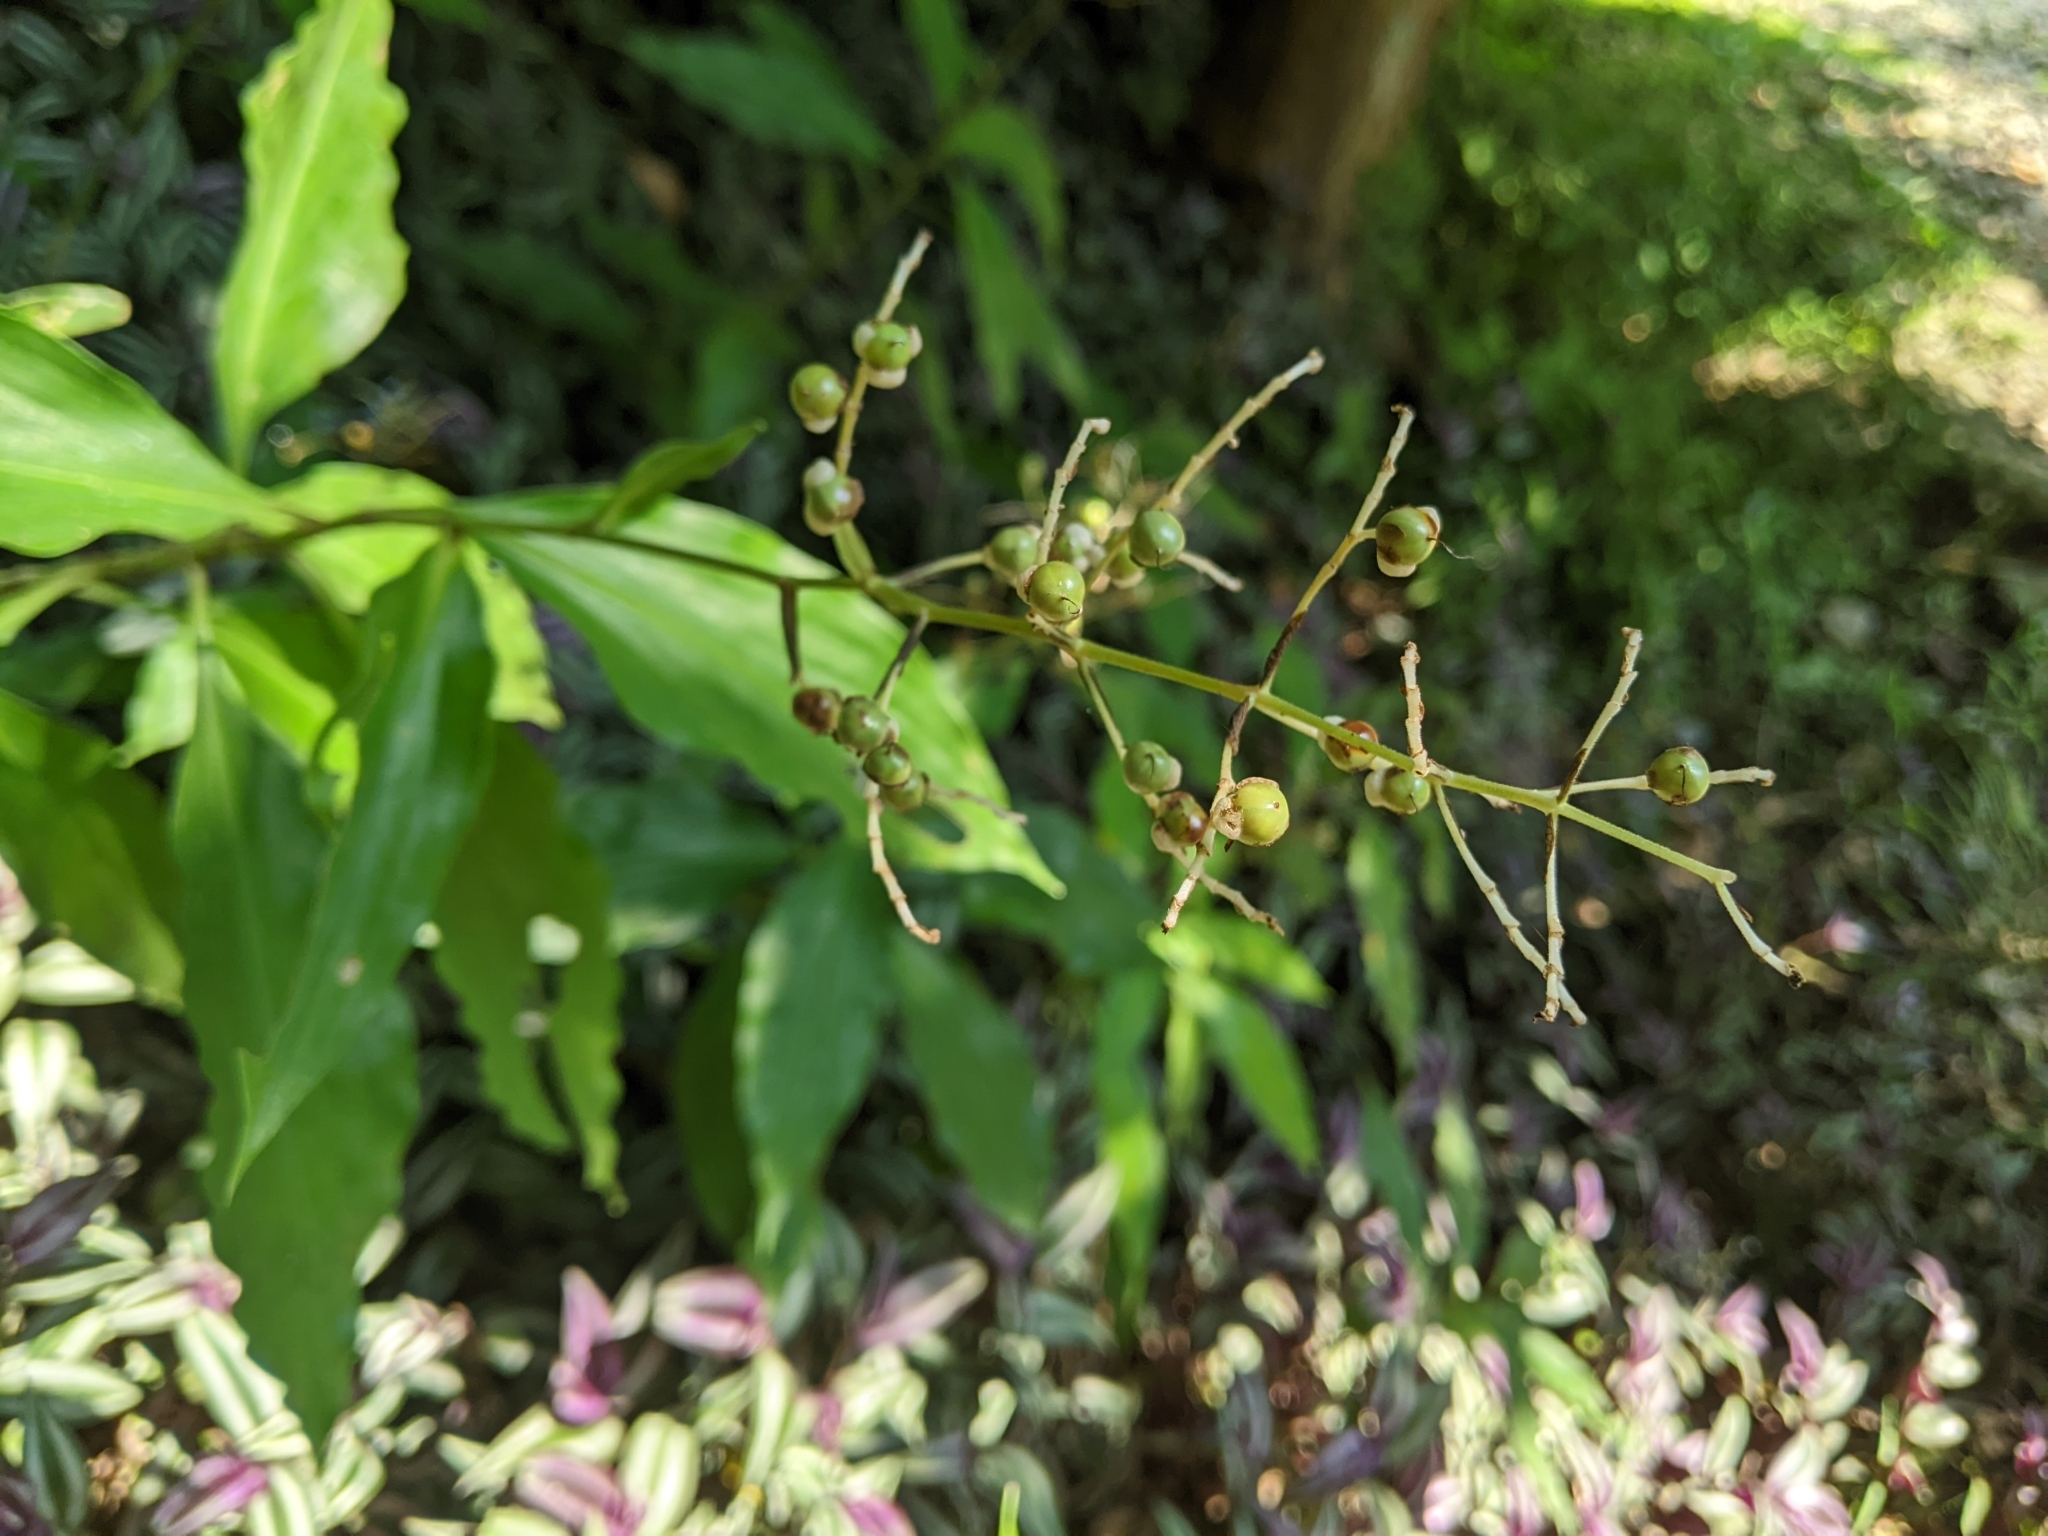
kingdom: Plantae
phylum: Tracheophyta
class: Liliopsida
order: Commelinales
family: Commelinaceae
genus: Pollia
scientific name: Pollia japonica
